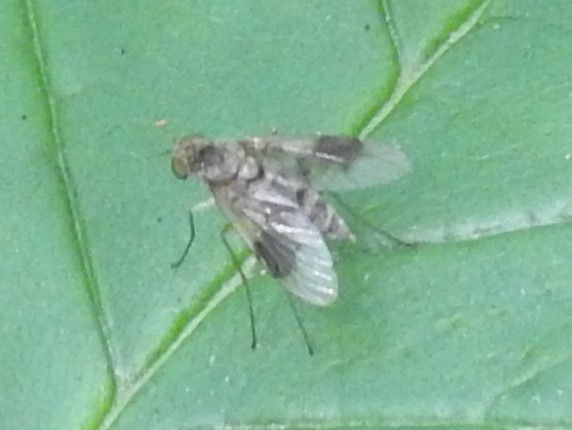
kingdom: Animalia
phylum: Arthropoda
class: Insecta
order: Diptera
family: Rhagionidae
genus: Chrysopilus
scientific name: Chrysopilus quadratus
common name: Quadrate snipe fly
